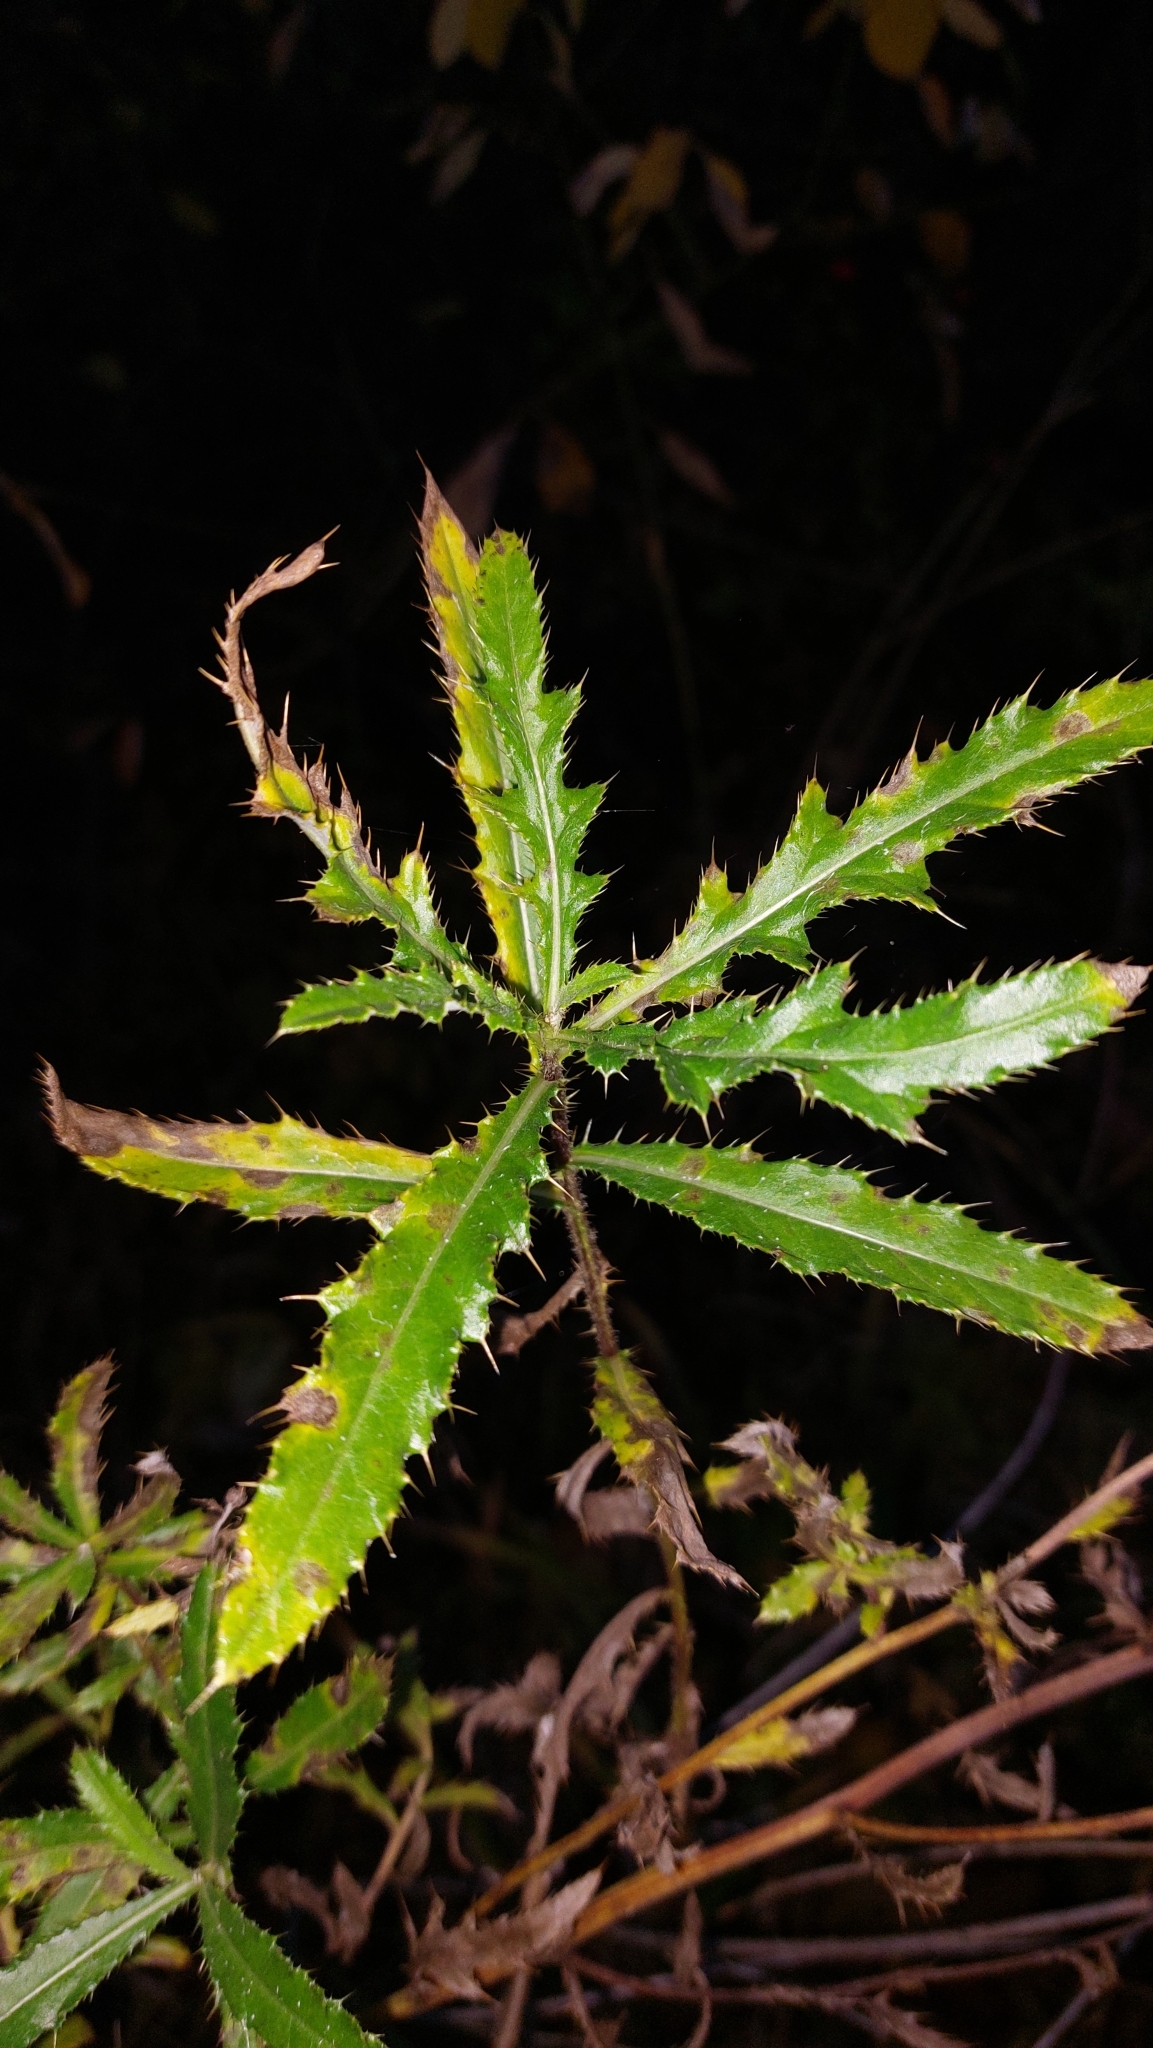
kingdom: Plantae
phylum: Tracheophyta
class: Magnoliopsida
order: Asterales
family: Asteraceae
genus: Cirsium
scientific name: Cirsium arvense
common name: Creeping thistle
